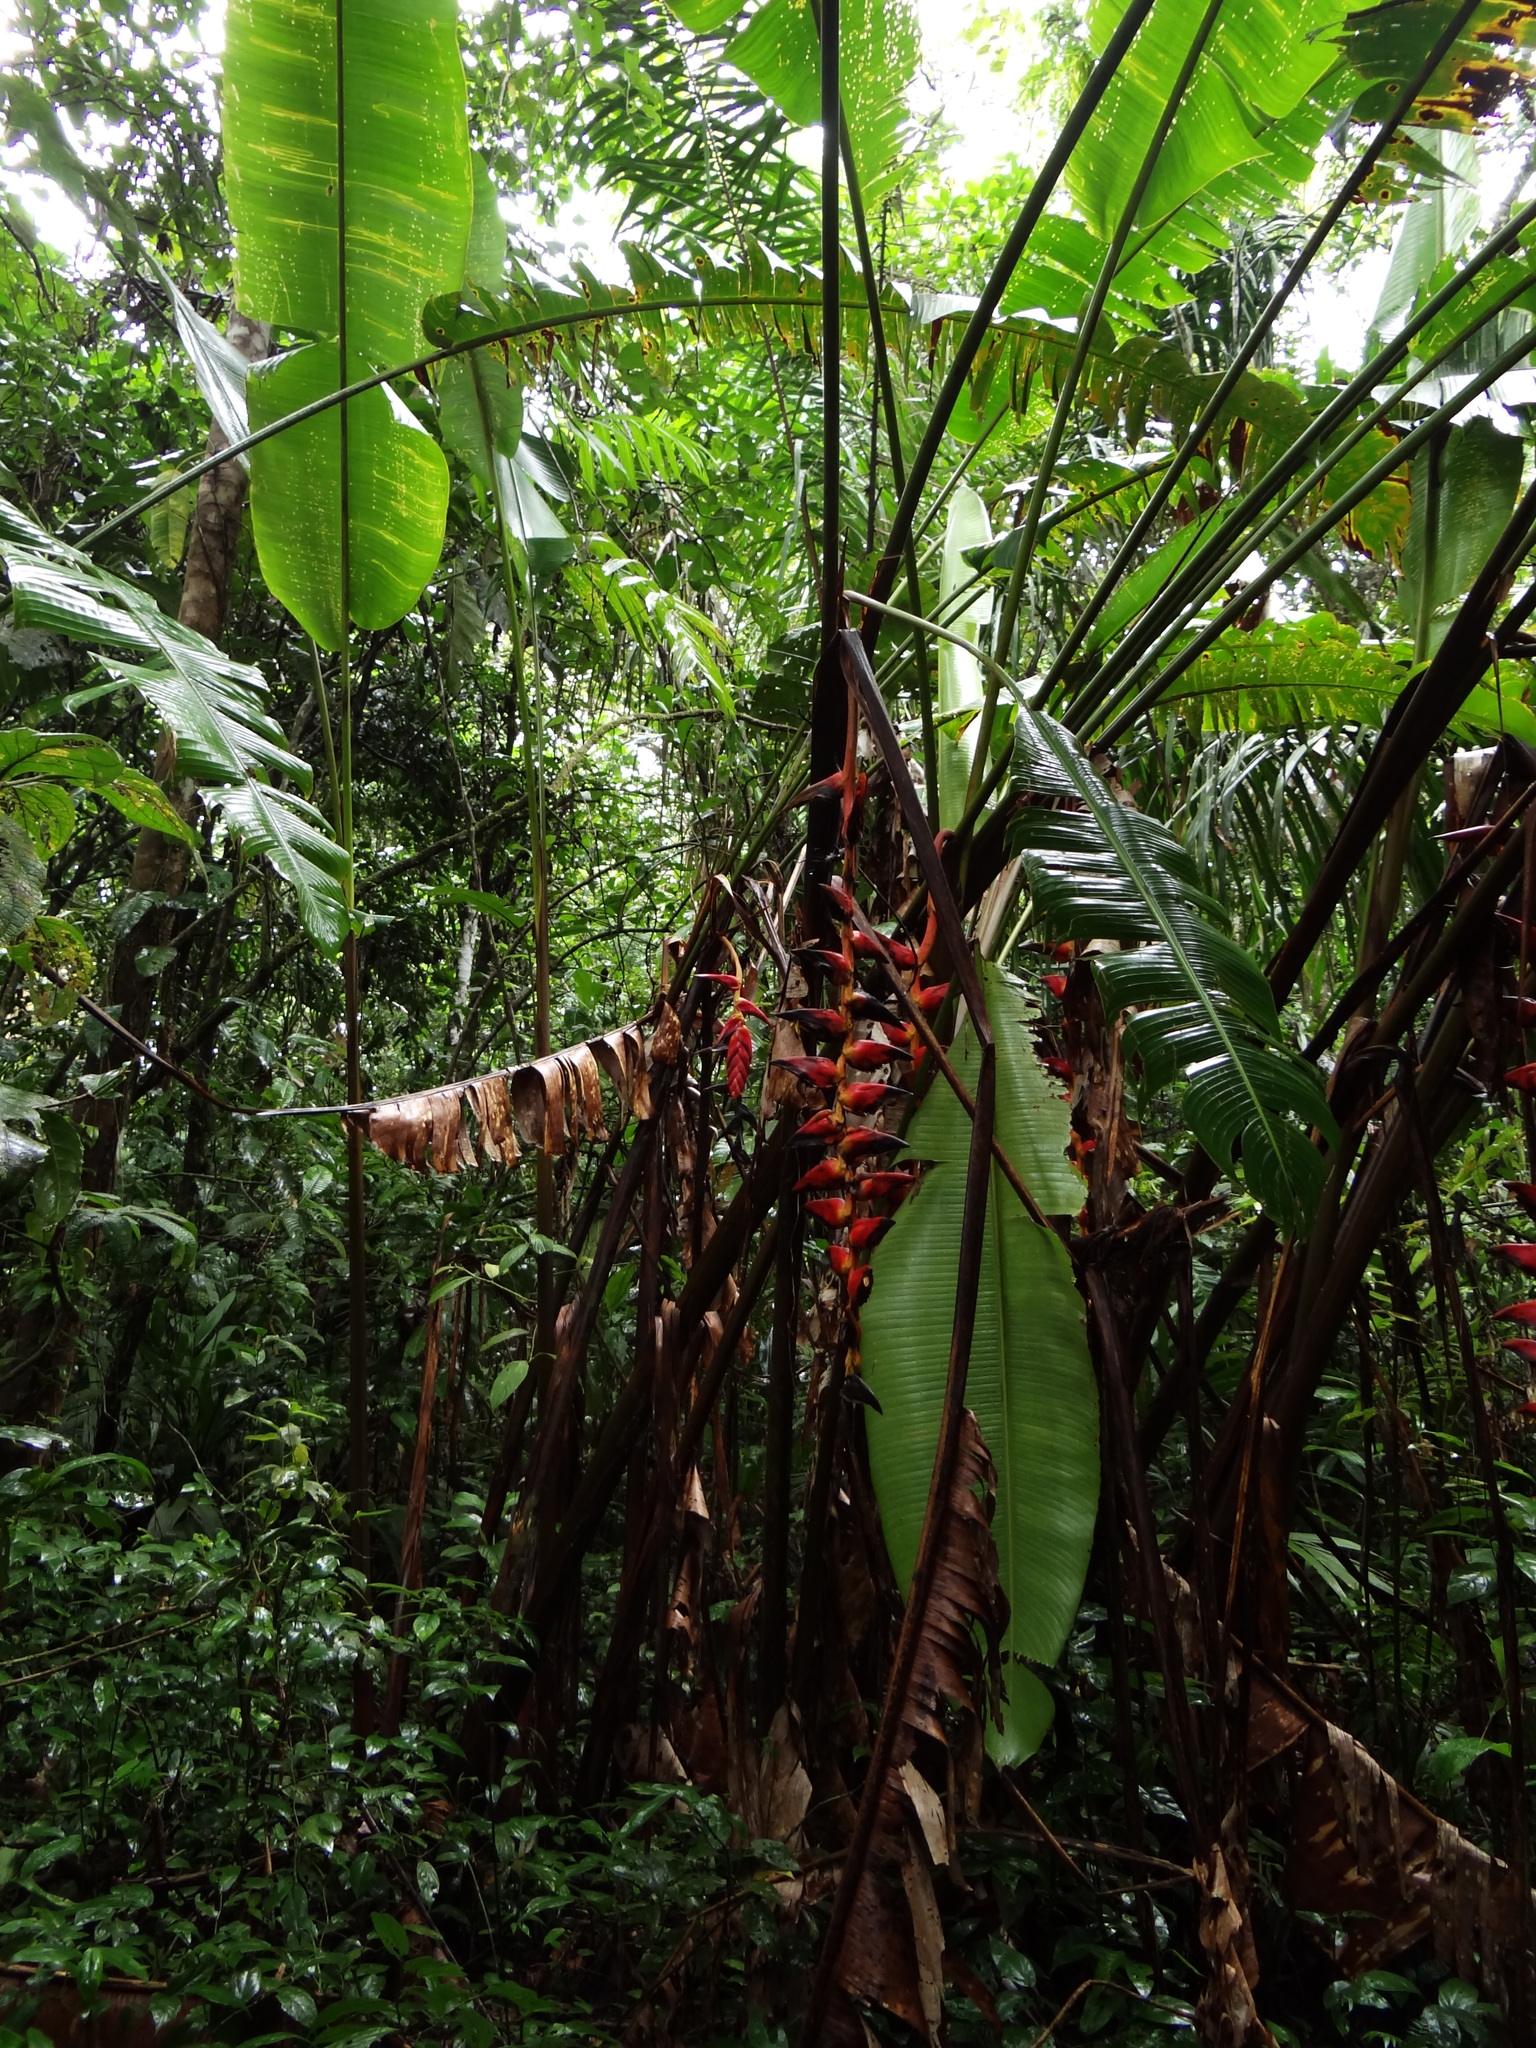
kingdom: Plantae
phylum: Tracheophyta
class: Liliopsida
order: Zingiberales
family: Heliconiaceae
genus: Heliconia
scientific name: Heliconia pogonantha
